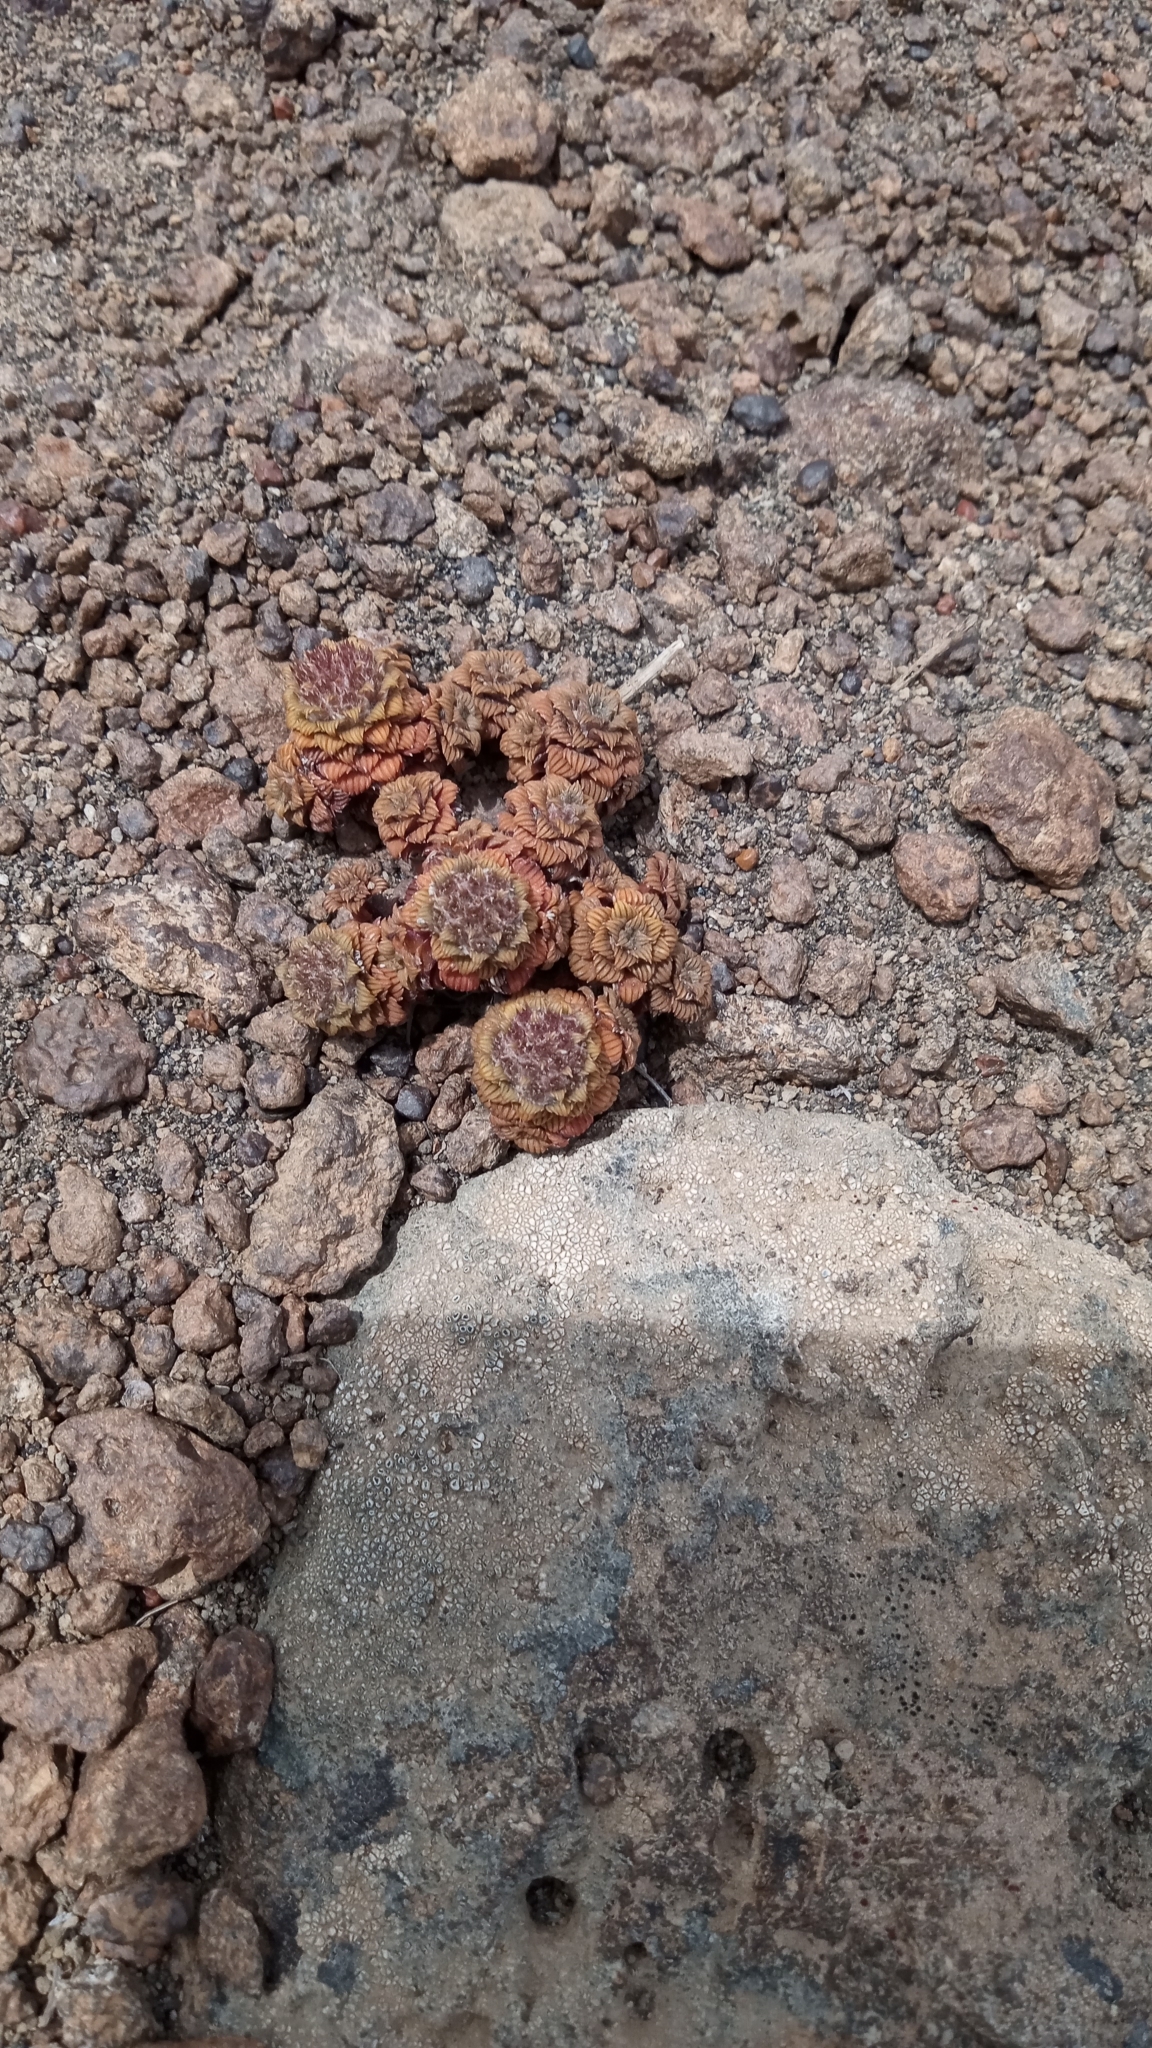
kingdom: Plantae
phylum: Tracheophyta
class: Magnoliopsida
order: Asterales
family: Asteraceae
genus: Nassauvia
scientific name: Nassauvia lagascae
